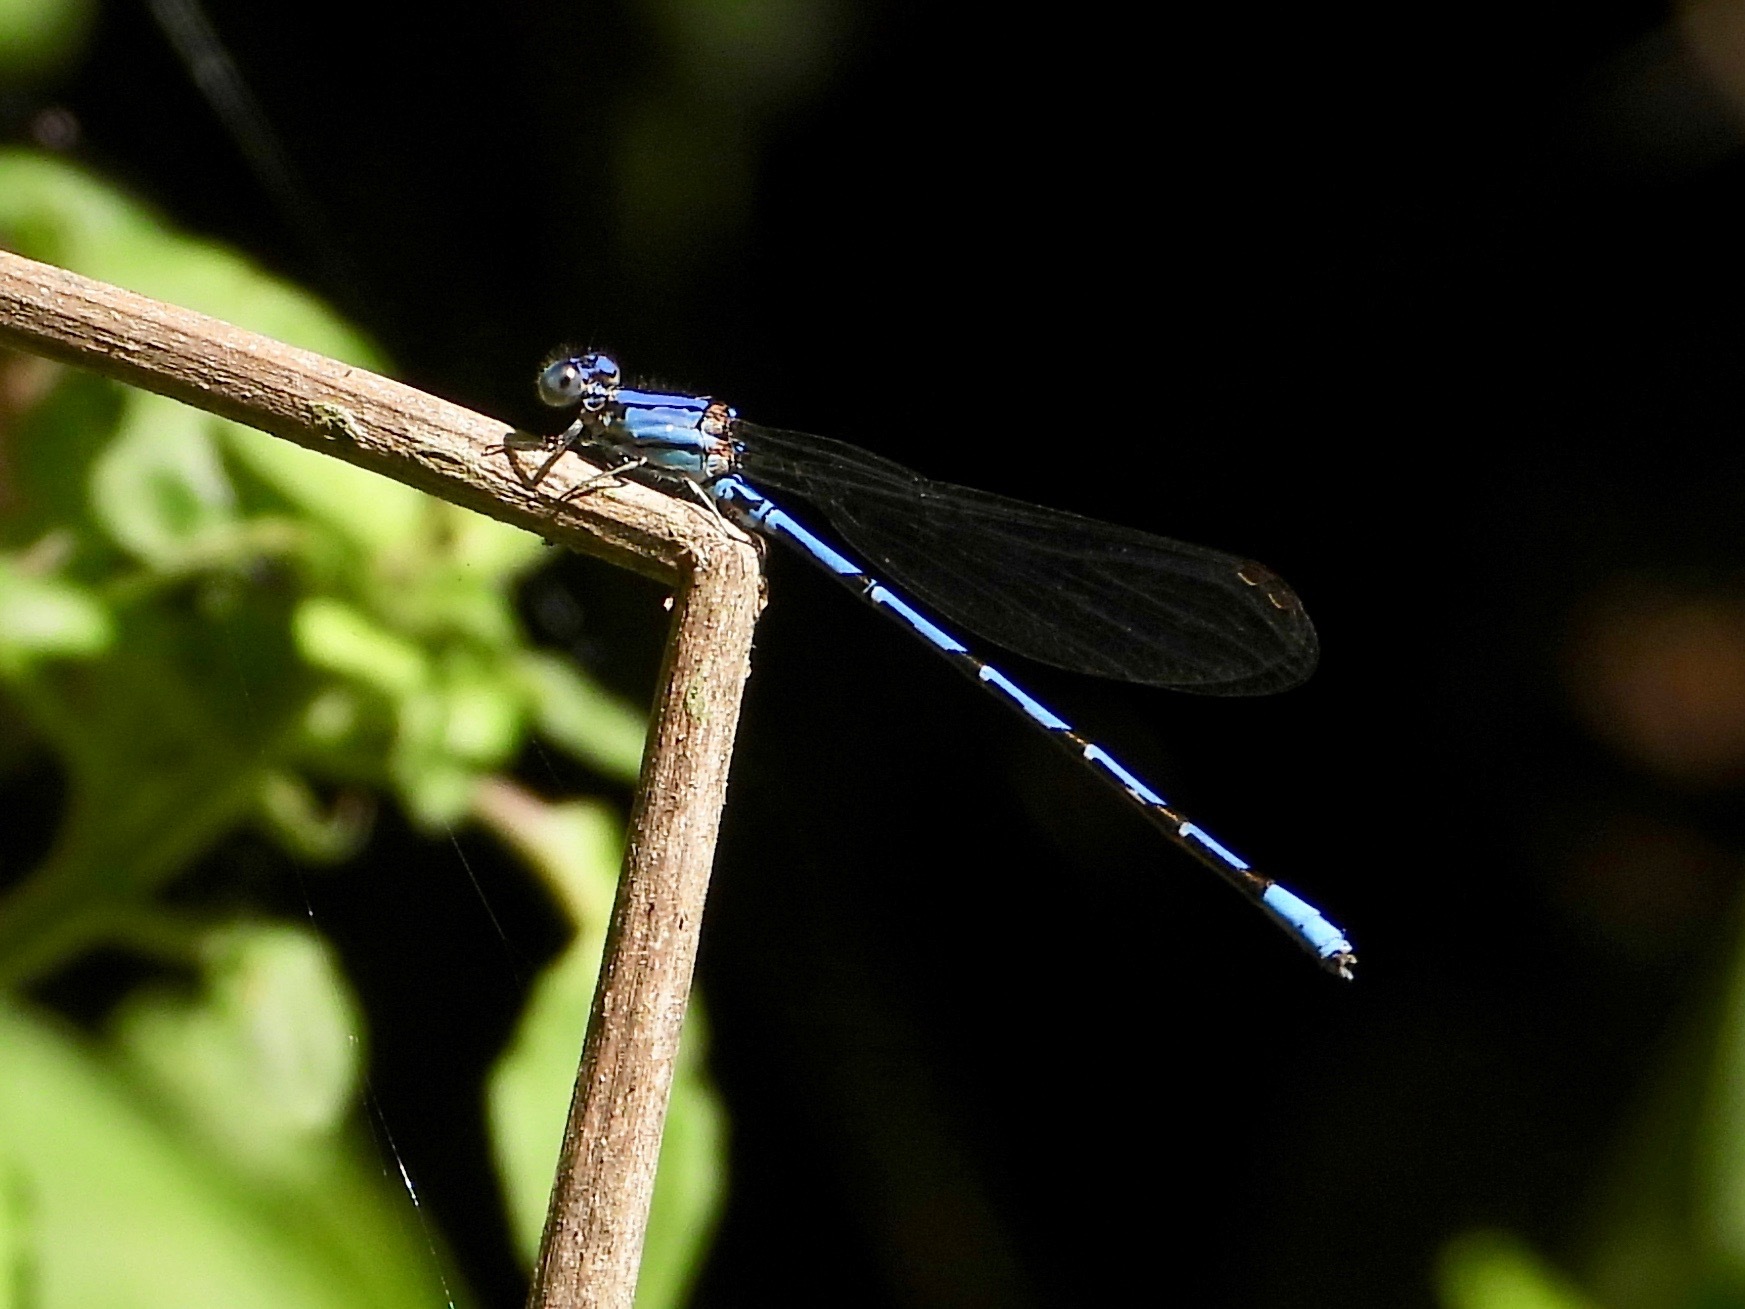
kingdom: Animalia
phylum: Arthropoda
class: Insecta
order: Odonata
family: Coenagrionidae
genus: Argia
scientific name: Argia elongata
